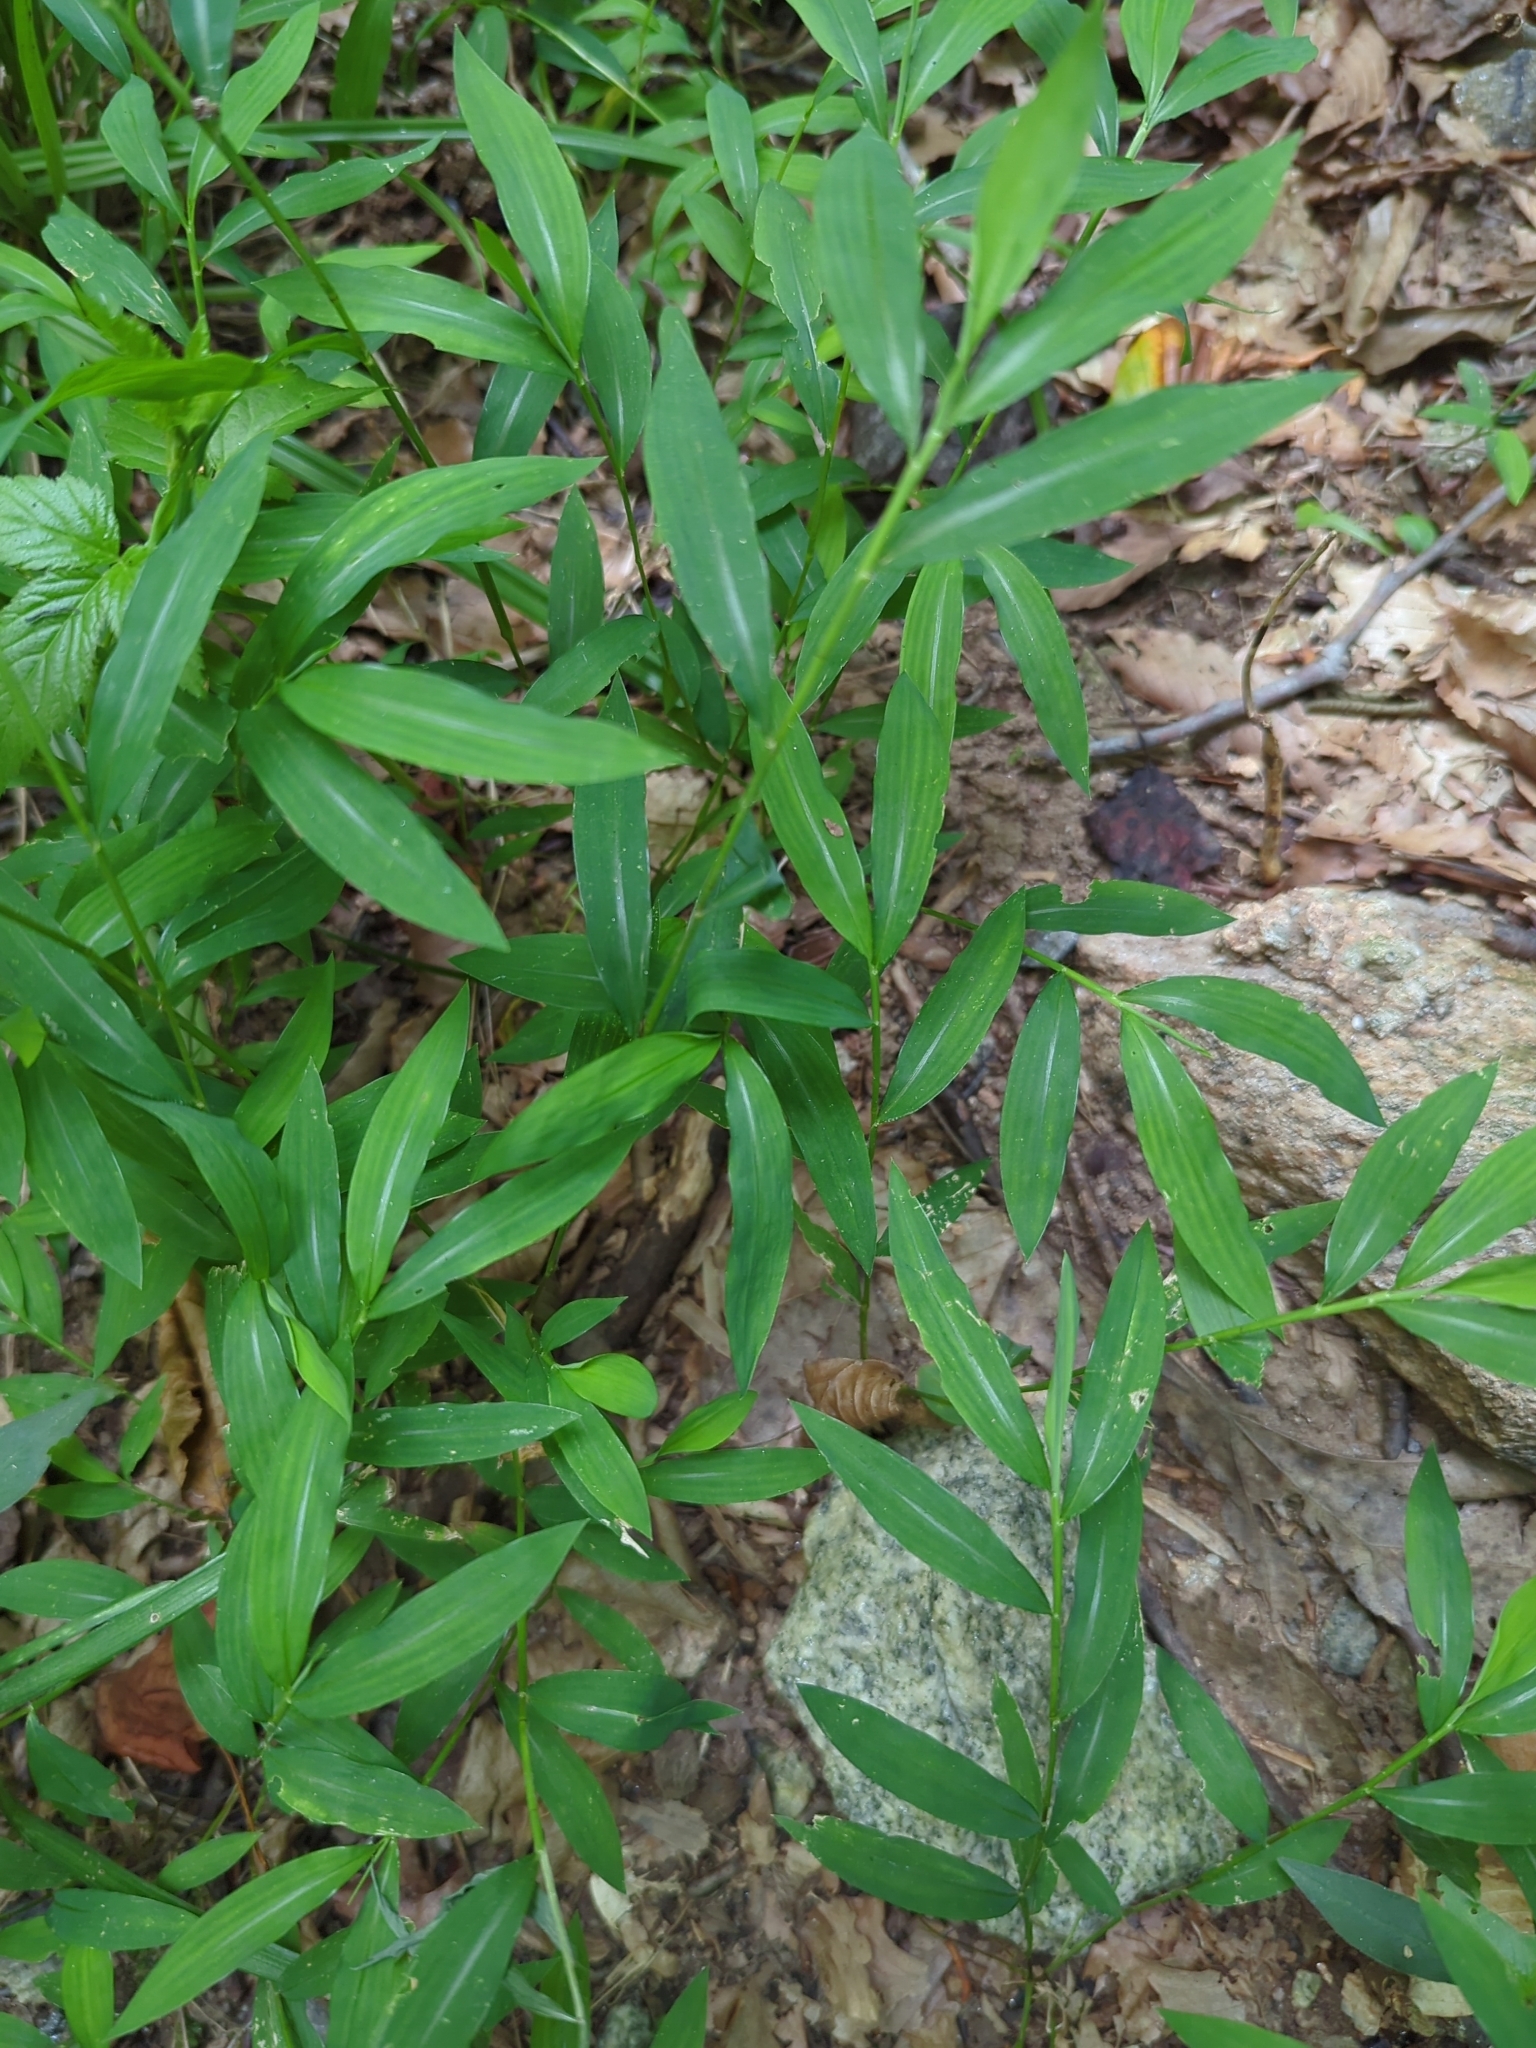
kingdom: Plantae
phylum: Tracheophyta
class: Liliopsida
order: Poales
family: Poaceae
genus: Microstegium
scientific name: Microstegium vimineum
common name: Japanese stiltgrass
